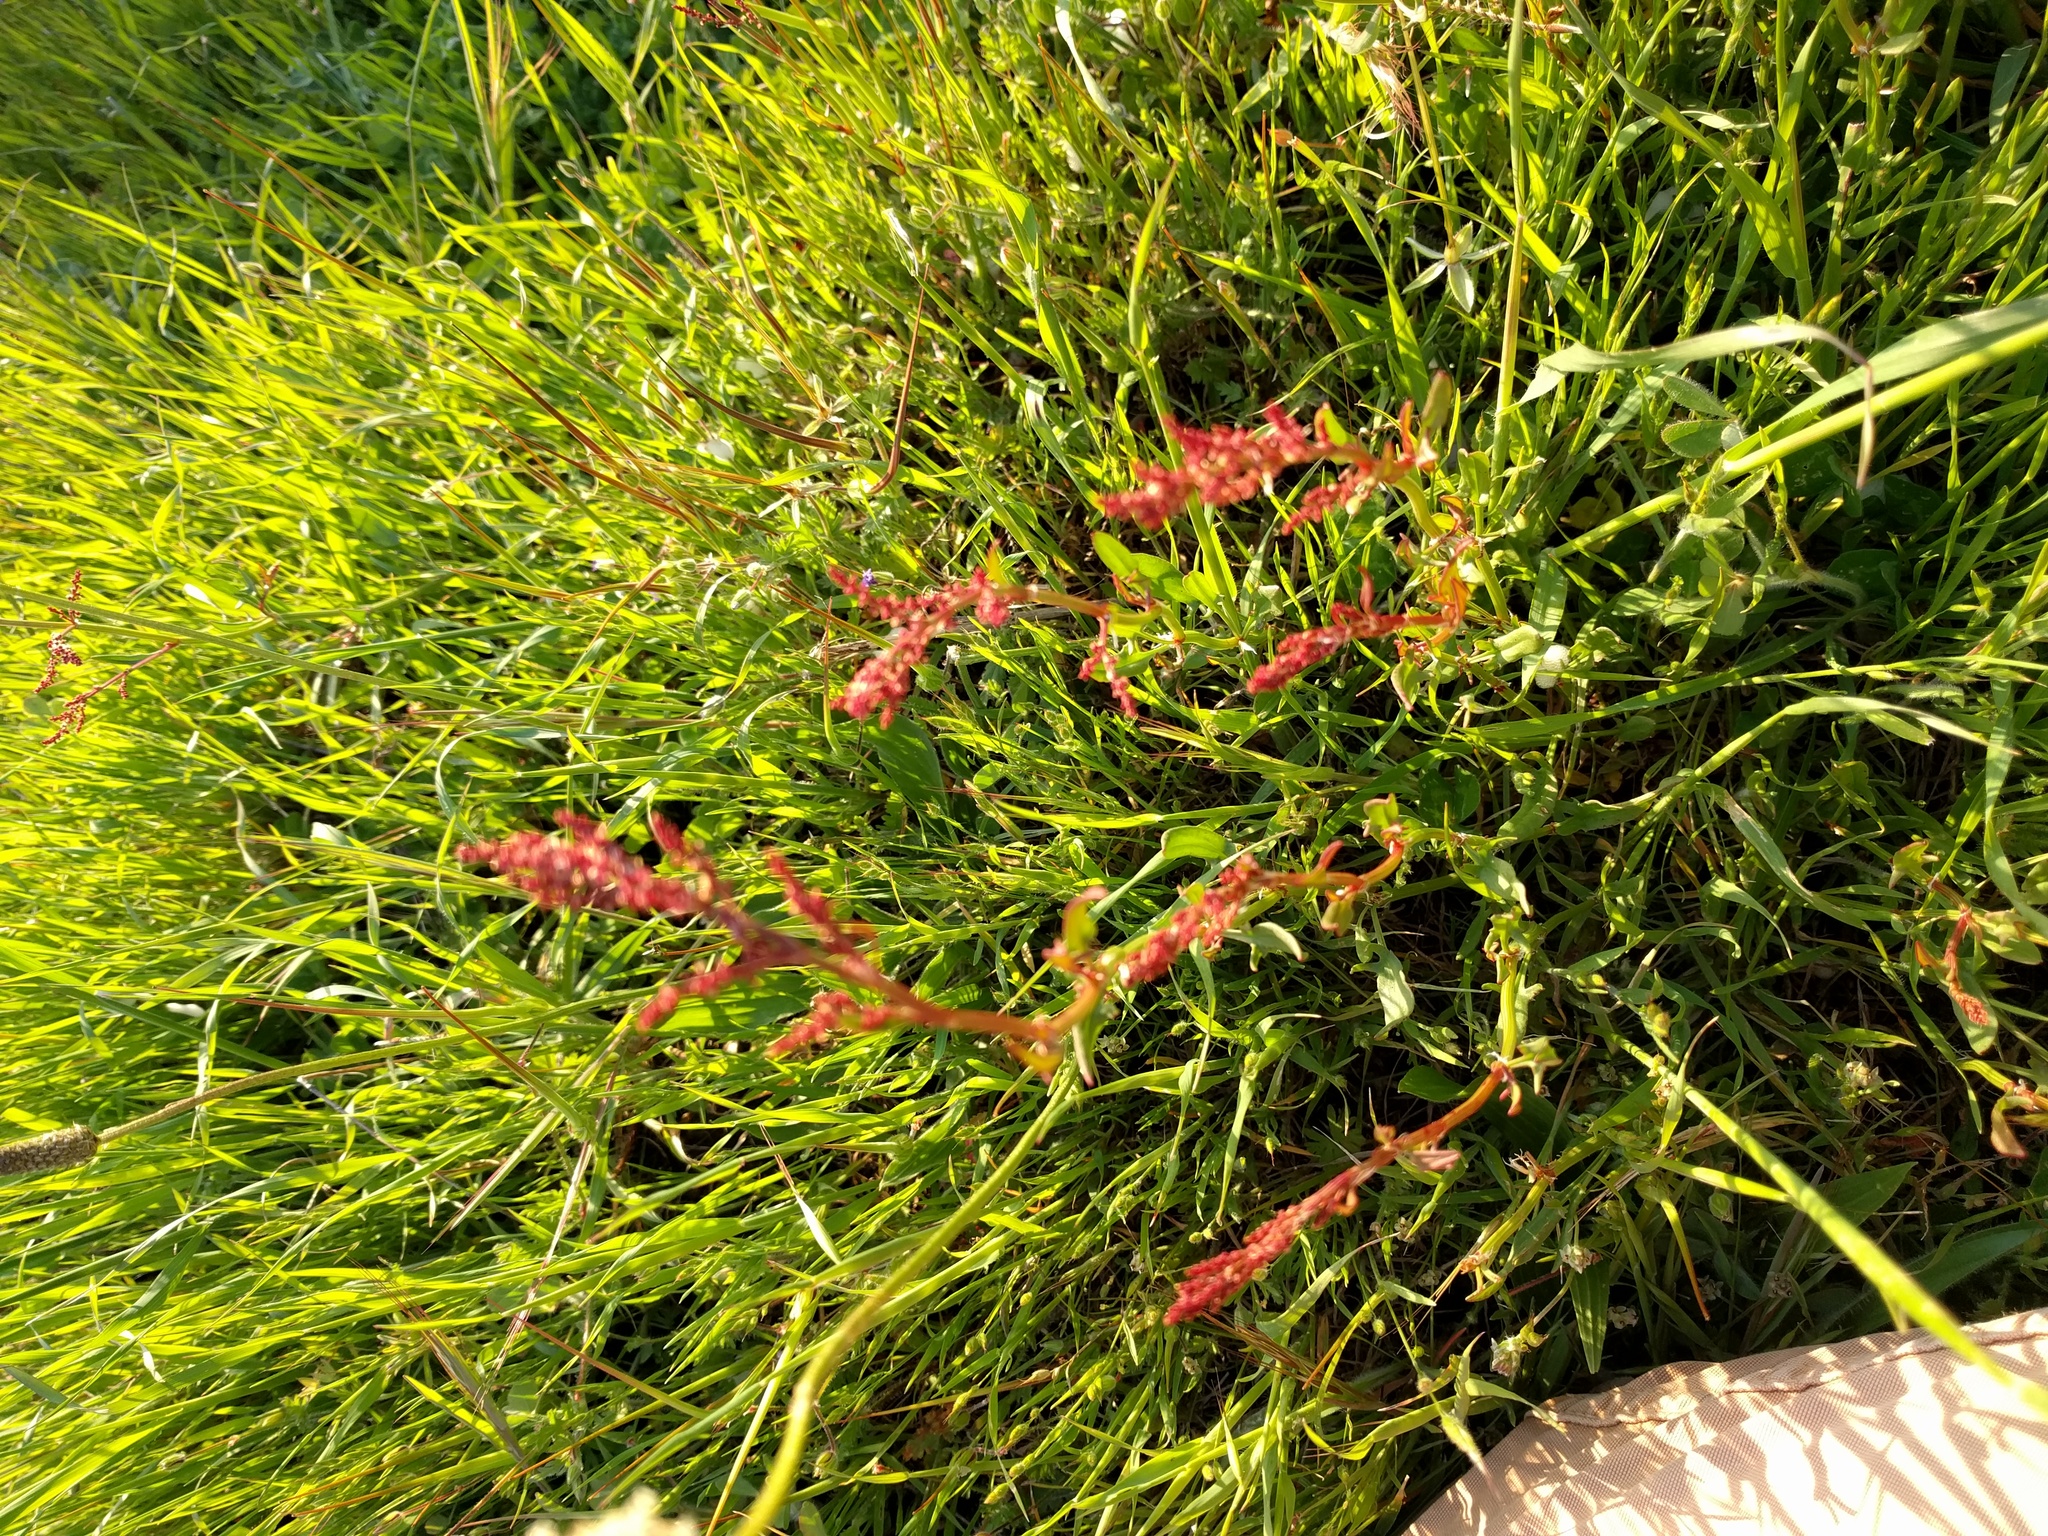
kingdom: Plantae
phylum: Tracheophyta
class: Magnoliopsida
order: Caryophyllales
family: Polygonaceae
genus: Rumex
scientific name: Rumex acetosella
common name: Common sheep sorrel
